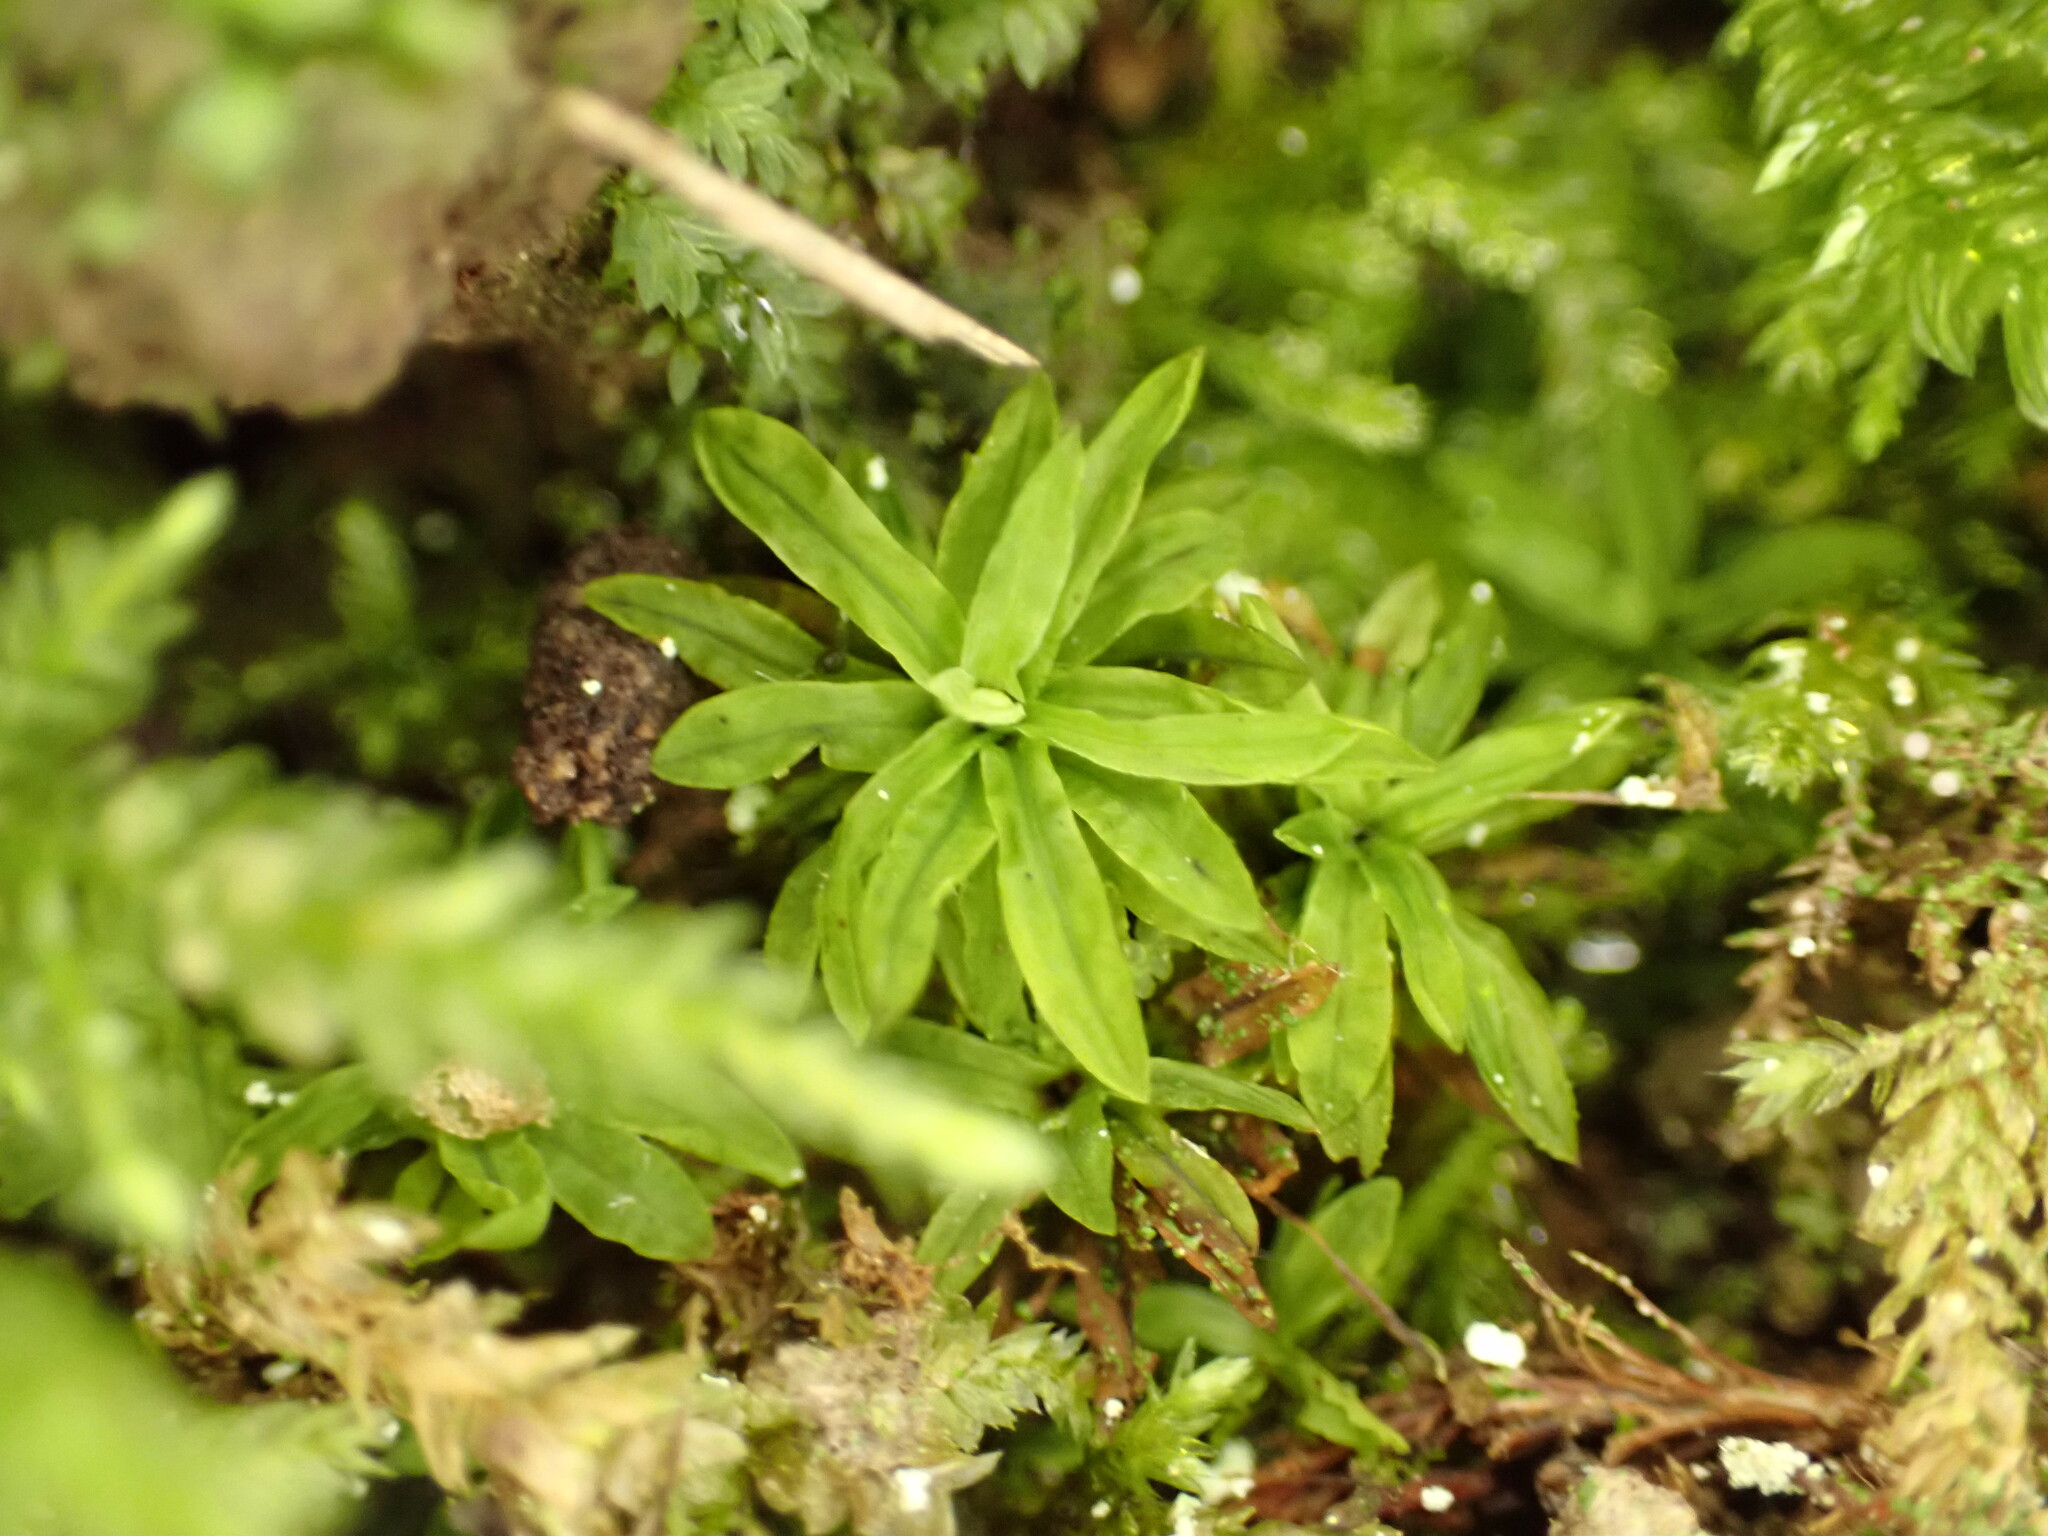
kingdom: Plantae
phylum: Bryophyta
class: Bryopsida
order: Encalyptales
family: Encalyptaceae
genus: Encalypta
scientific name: Encalypta streptocarpa
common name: Spiral extinguisher-moss
